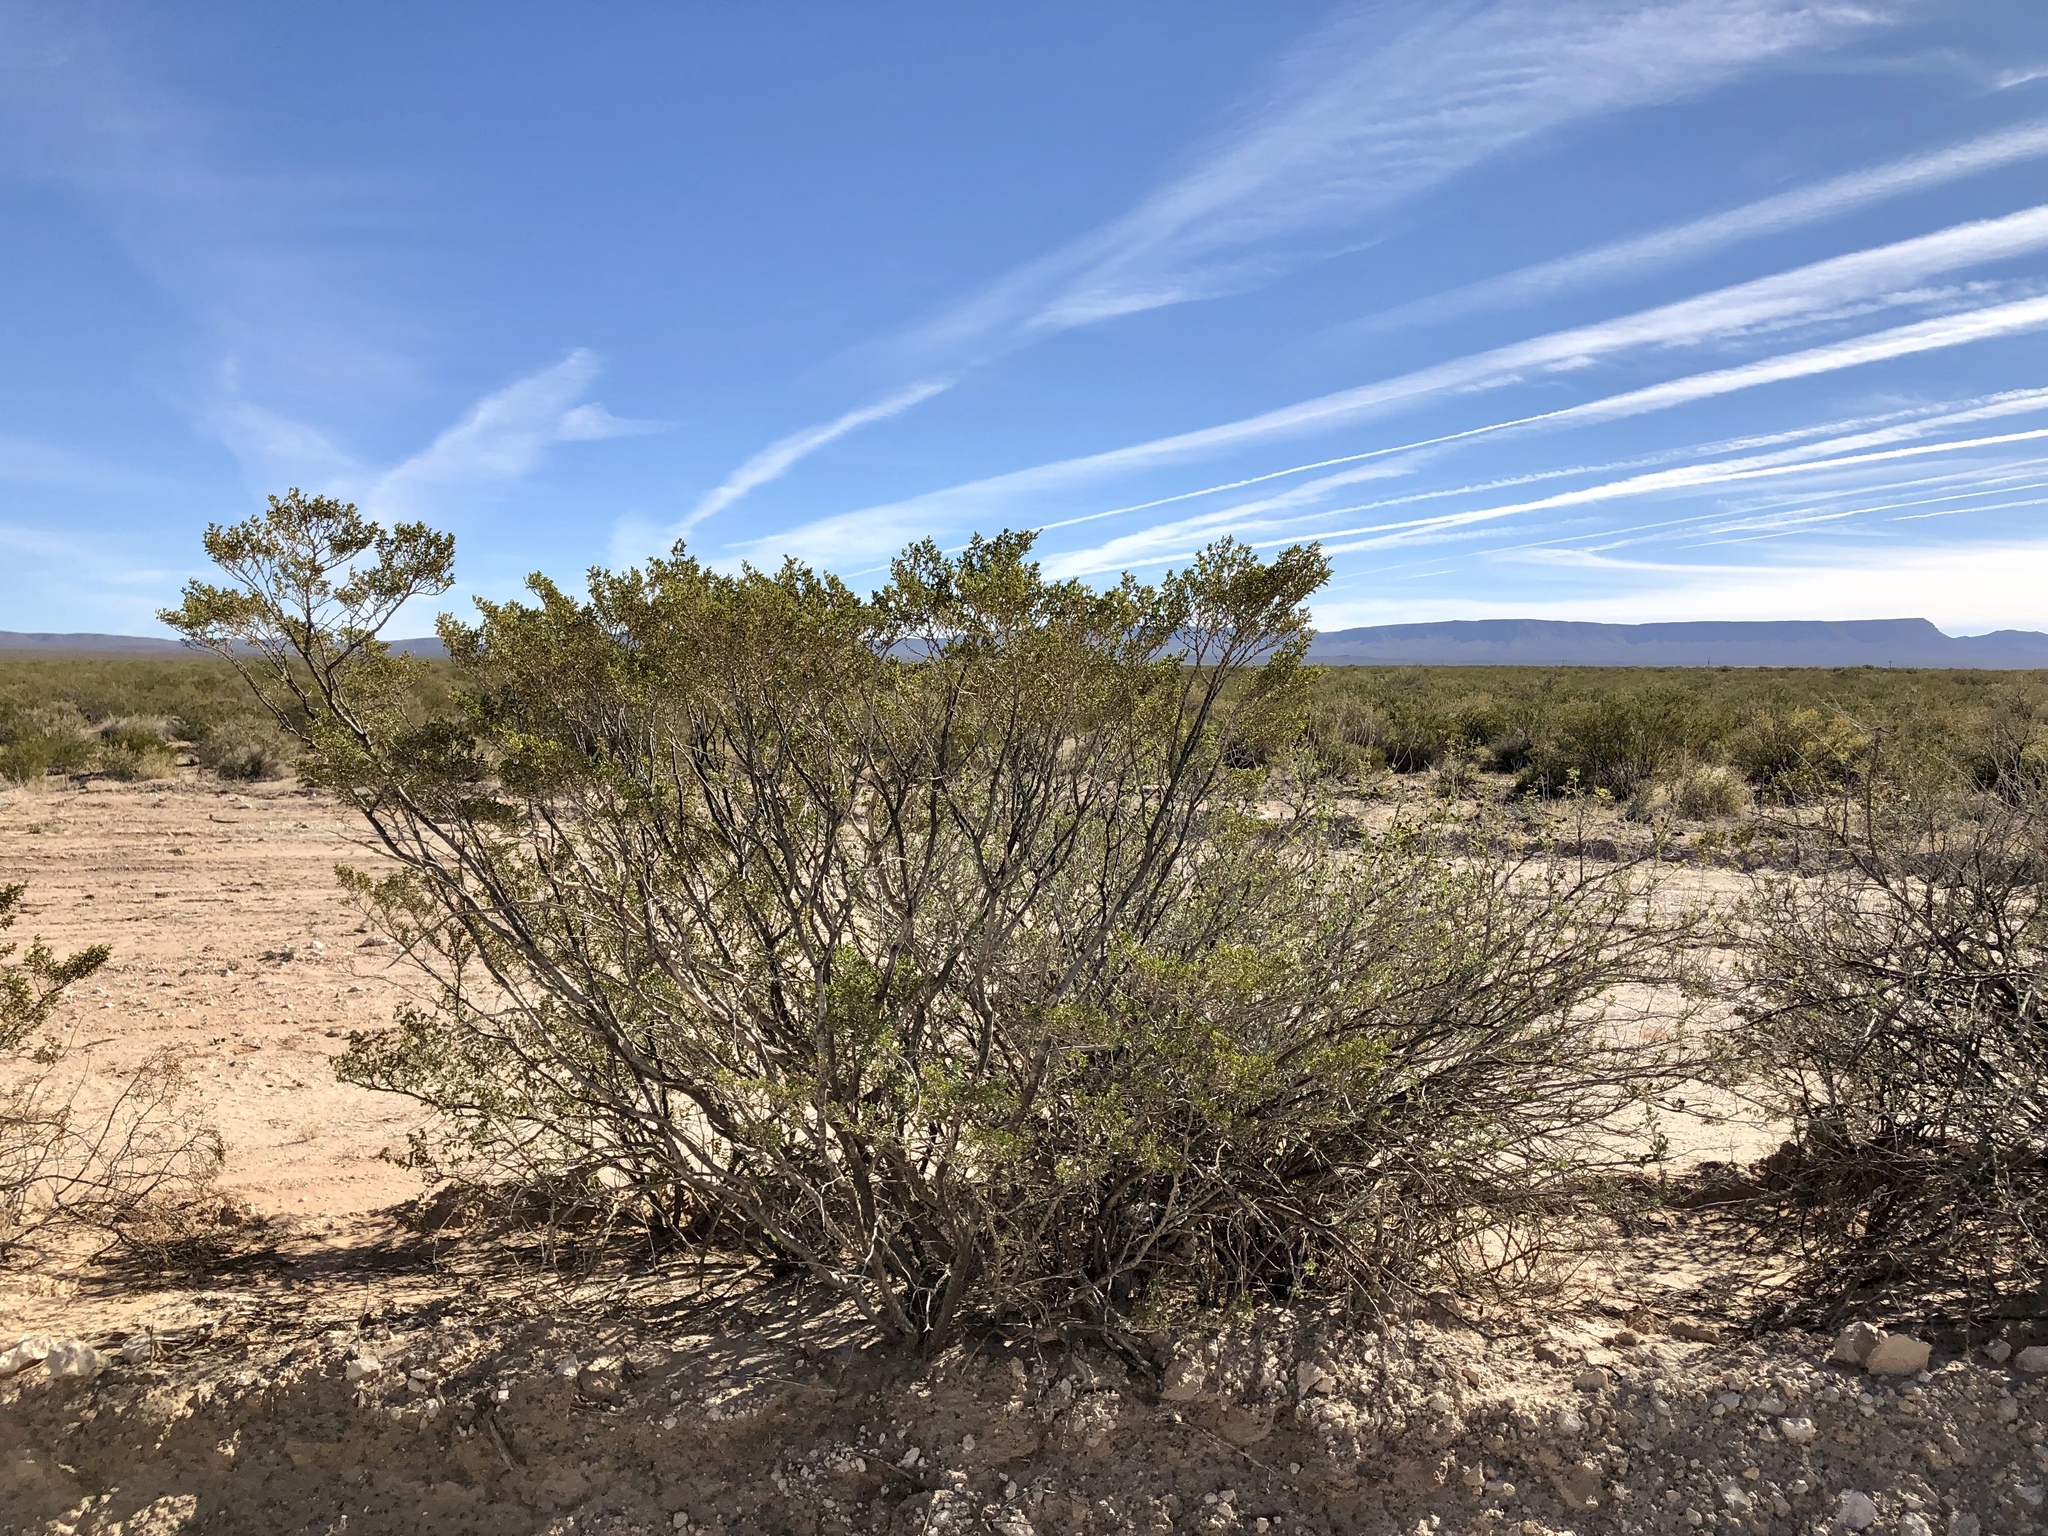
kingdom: Plantae
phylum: Tracheophyta
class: Magnoliopsida
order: Zygophyllales
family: Zygophyllaceae
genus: Larrea
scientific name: Larrea tridentata
